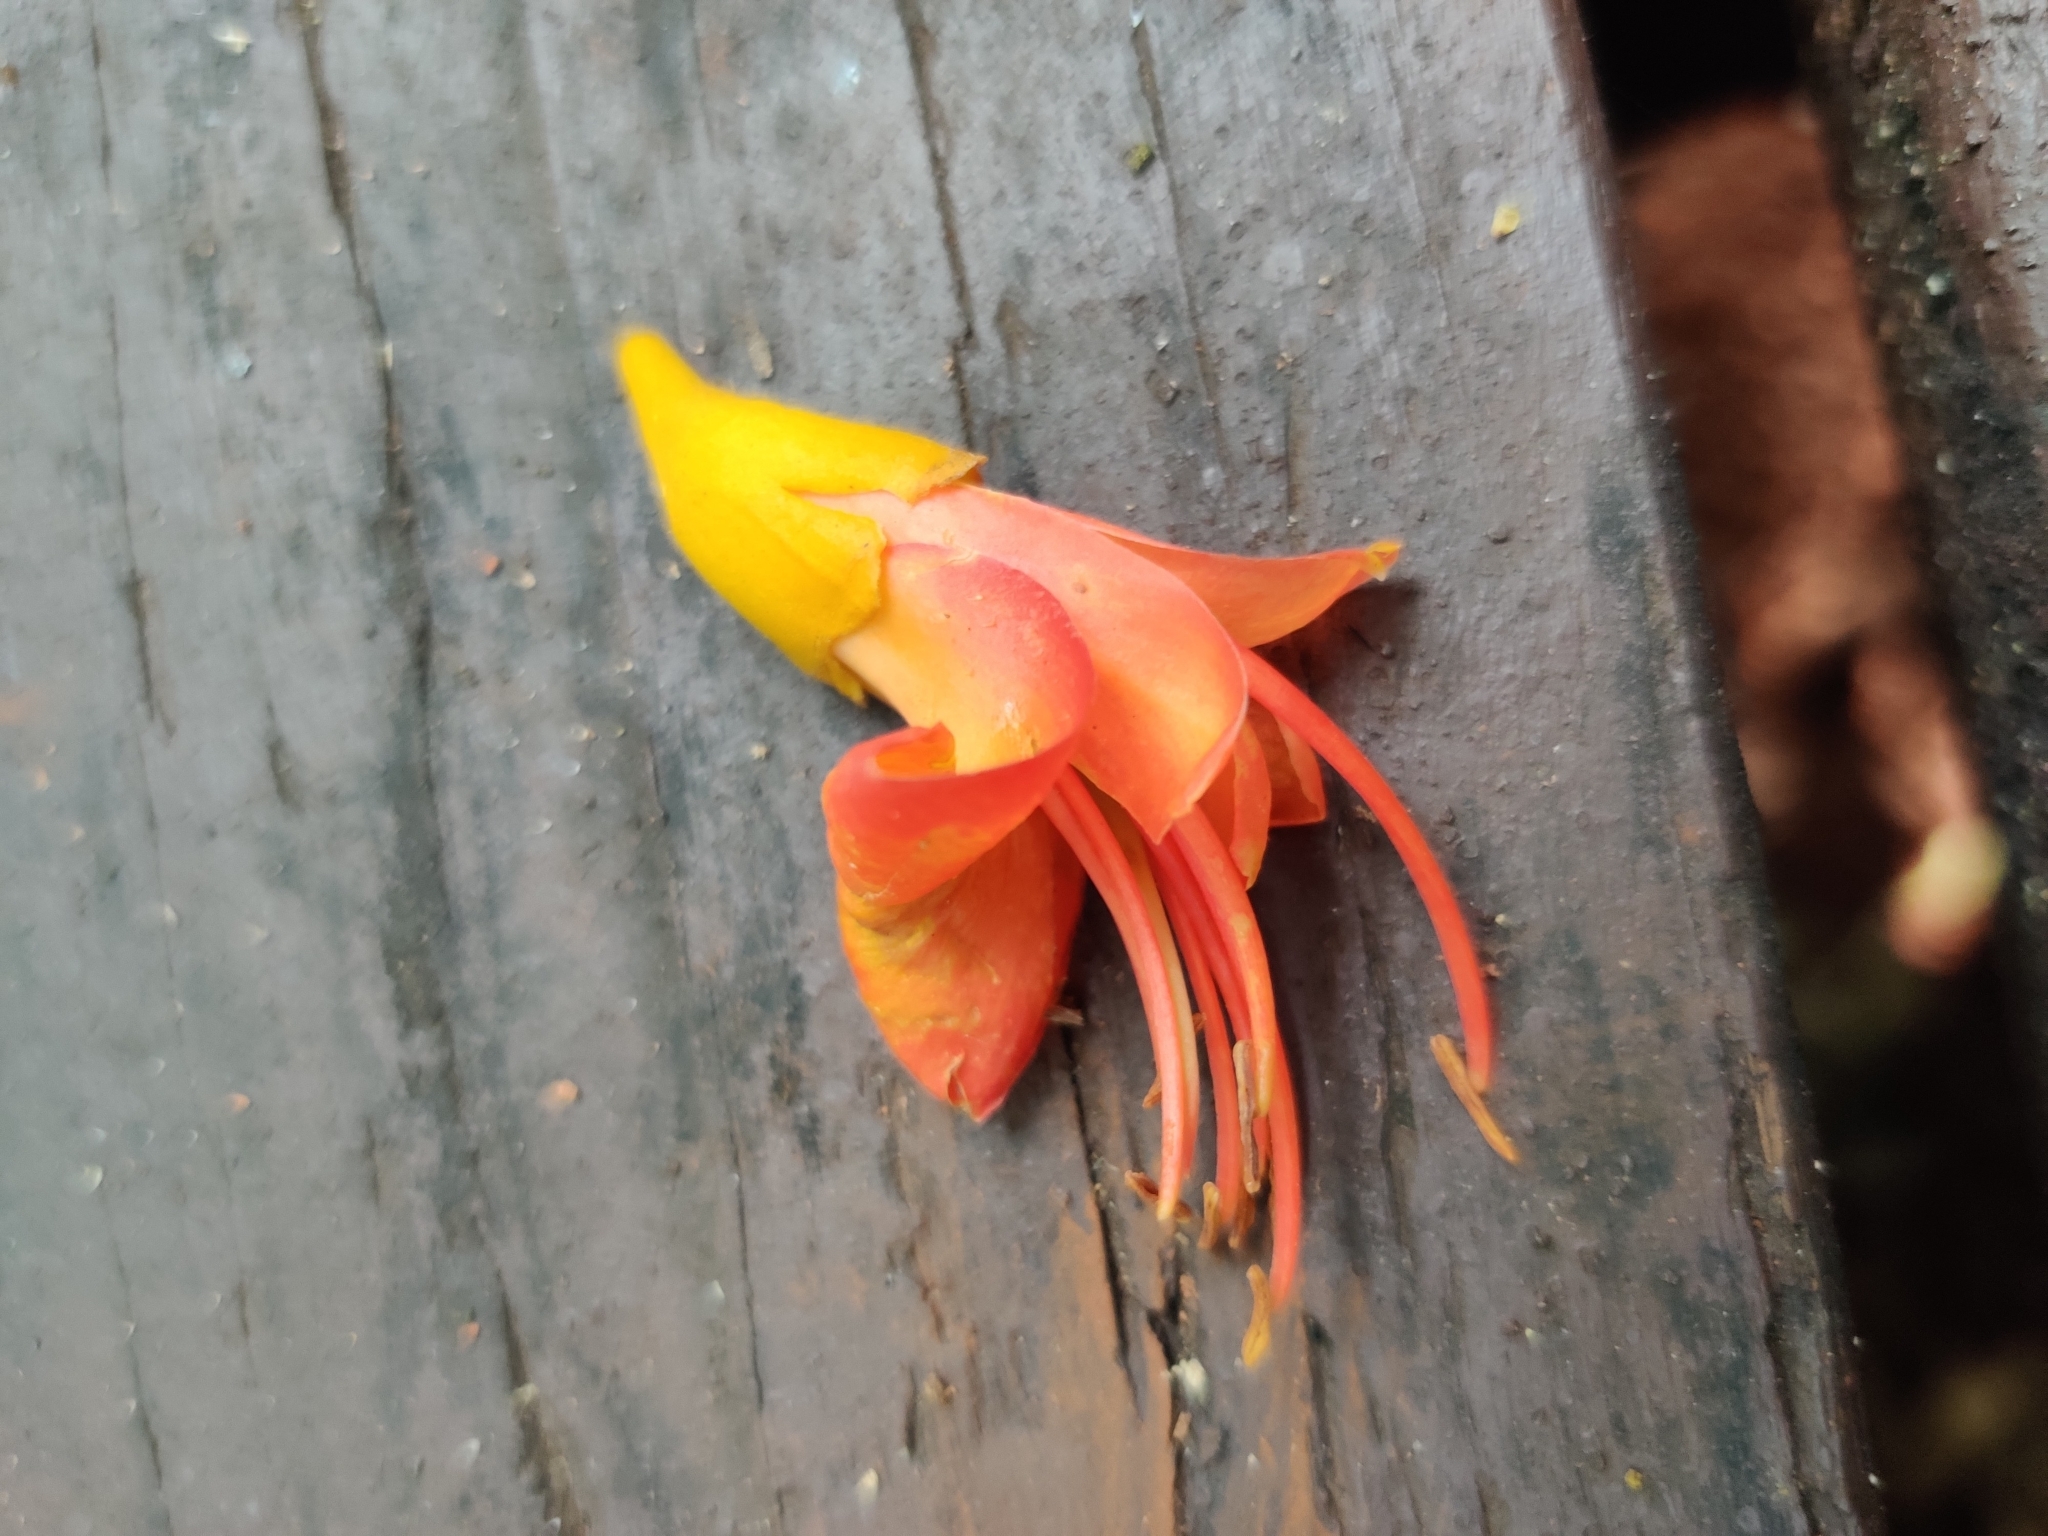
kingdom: Plantae
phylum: Tracheophyta
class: Magnoliopsida
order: Fabales
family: Fabaceae
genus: Castanospermum
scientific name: Castanospermum australe
